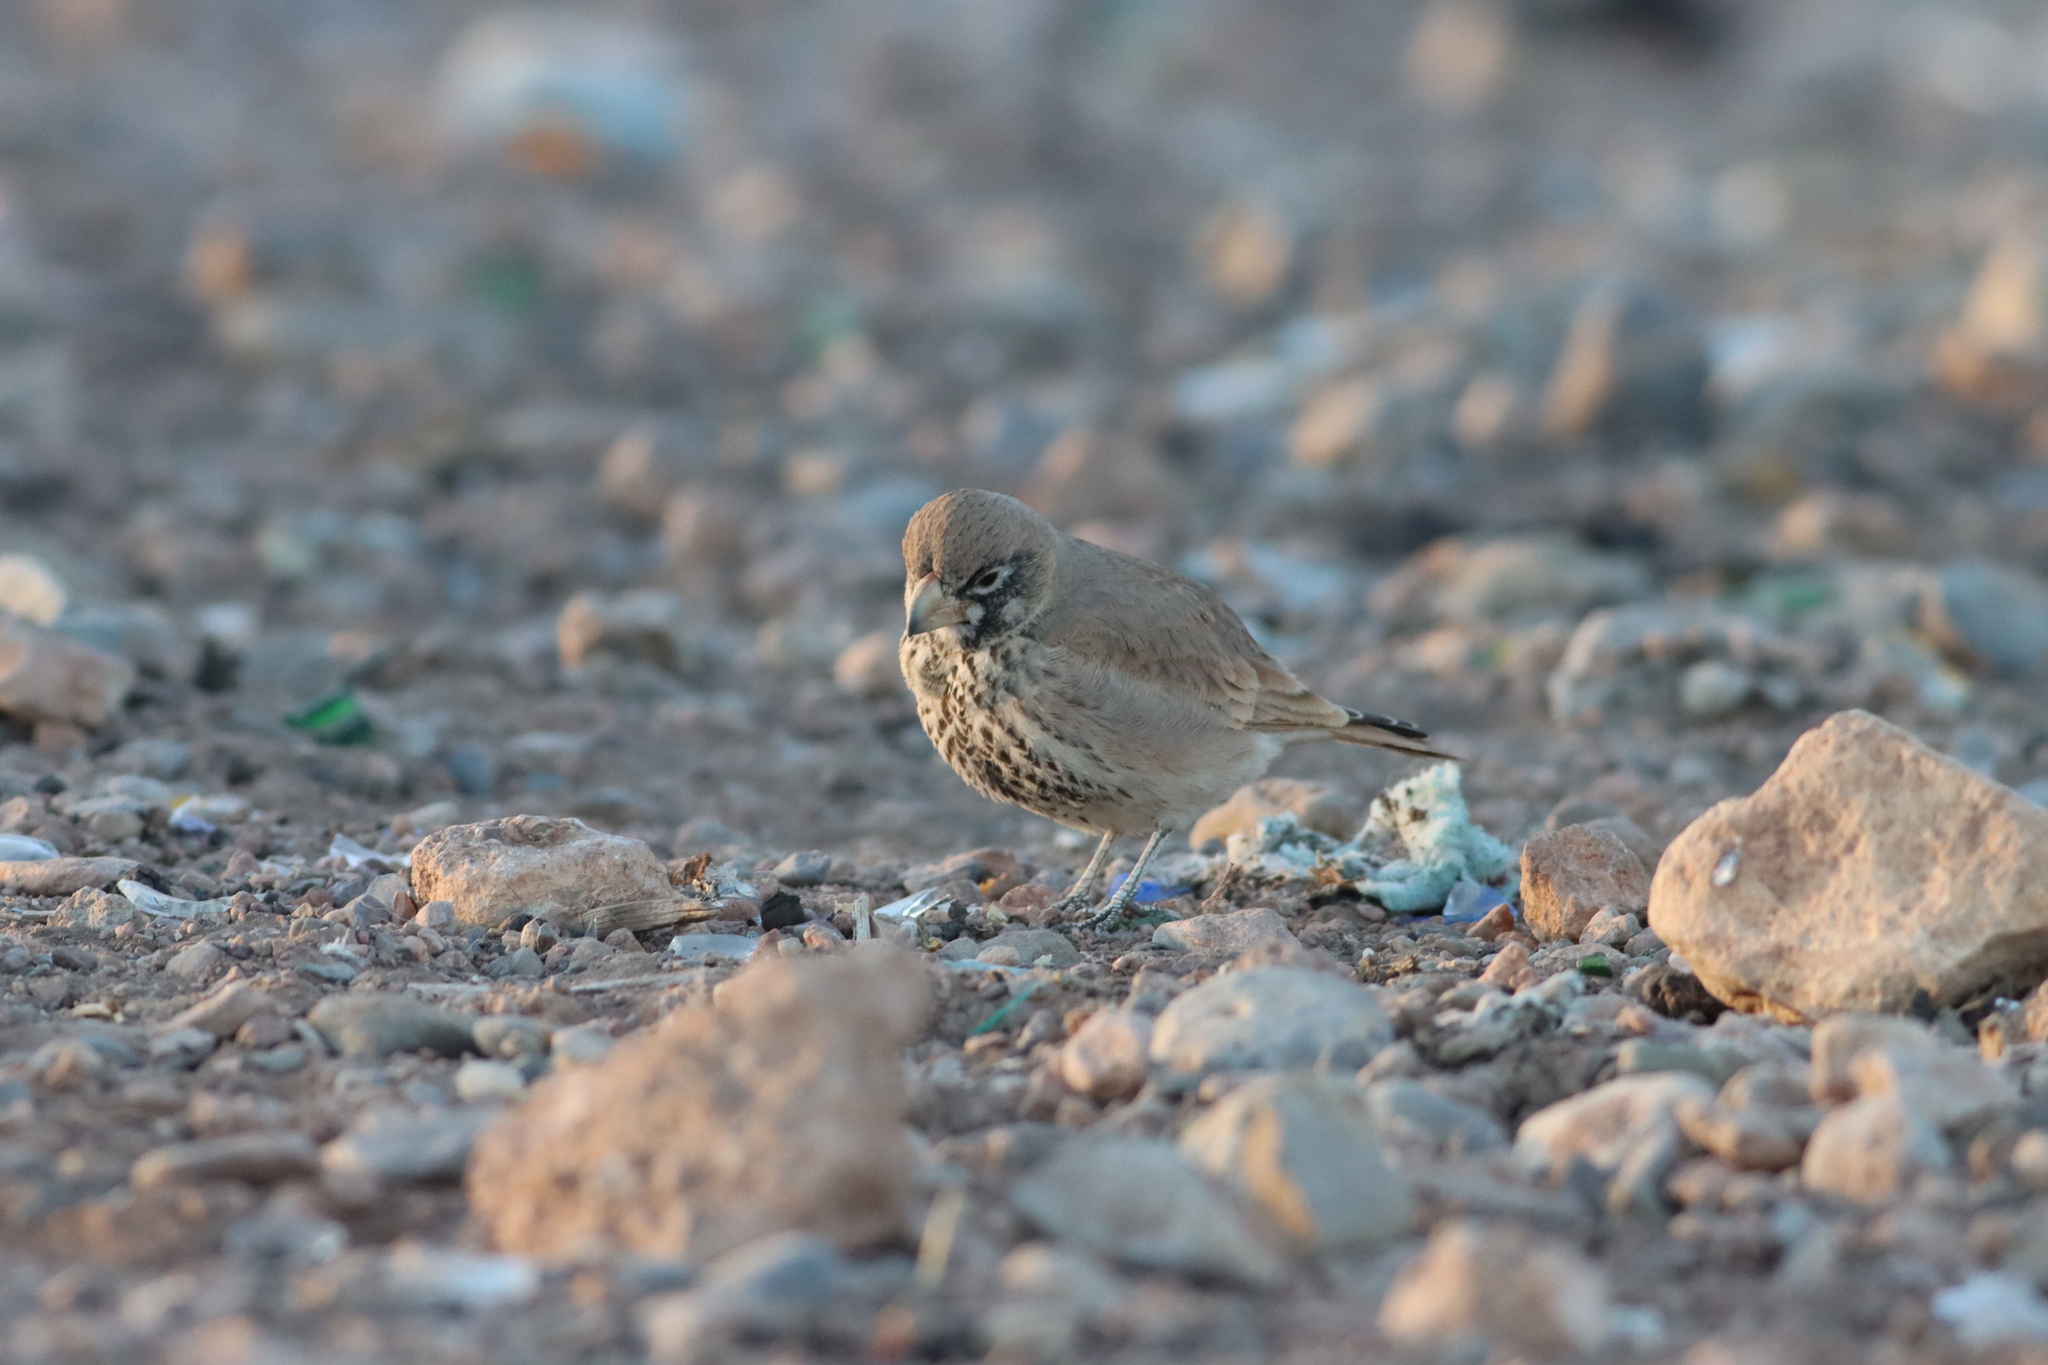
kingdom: Animalia
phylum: Chordata
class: Aves
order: Passeriformes
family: Alaudidae
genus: Ramphocoris
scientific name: Ramphocoris clotbey
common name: Thick-billed lark
